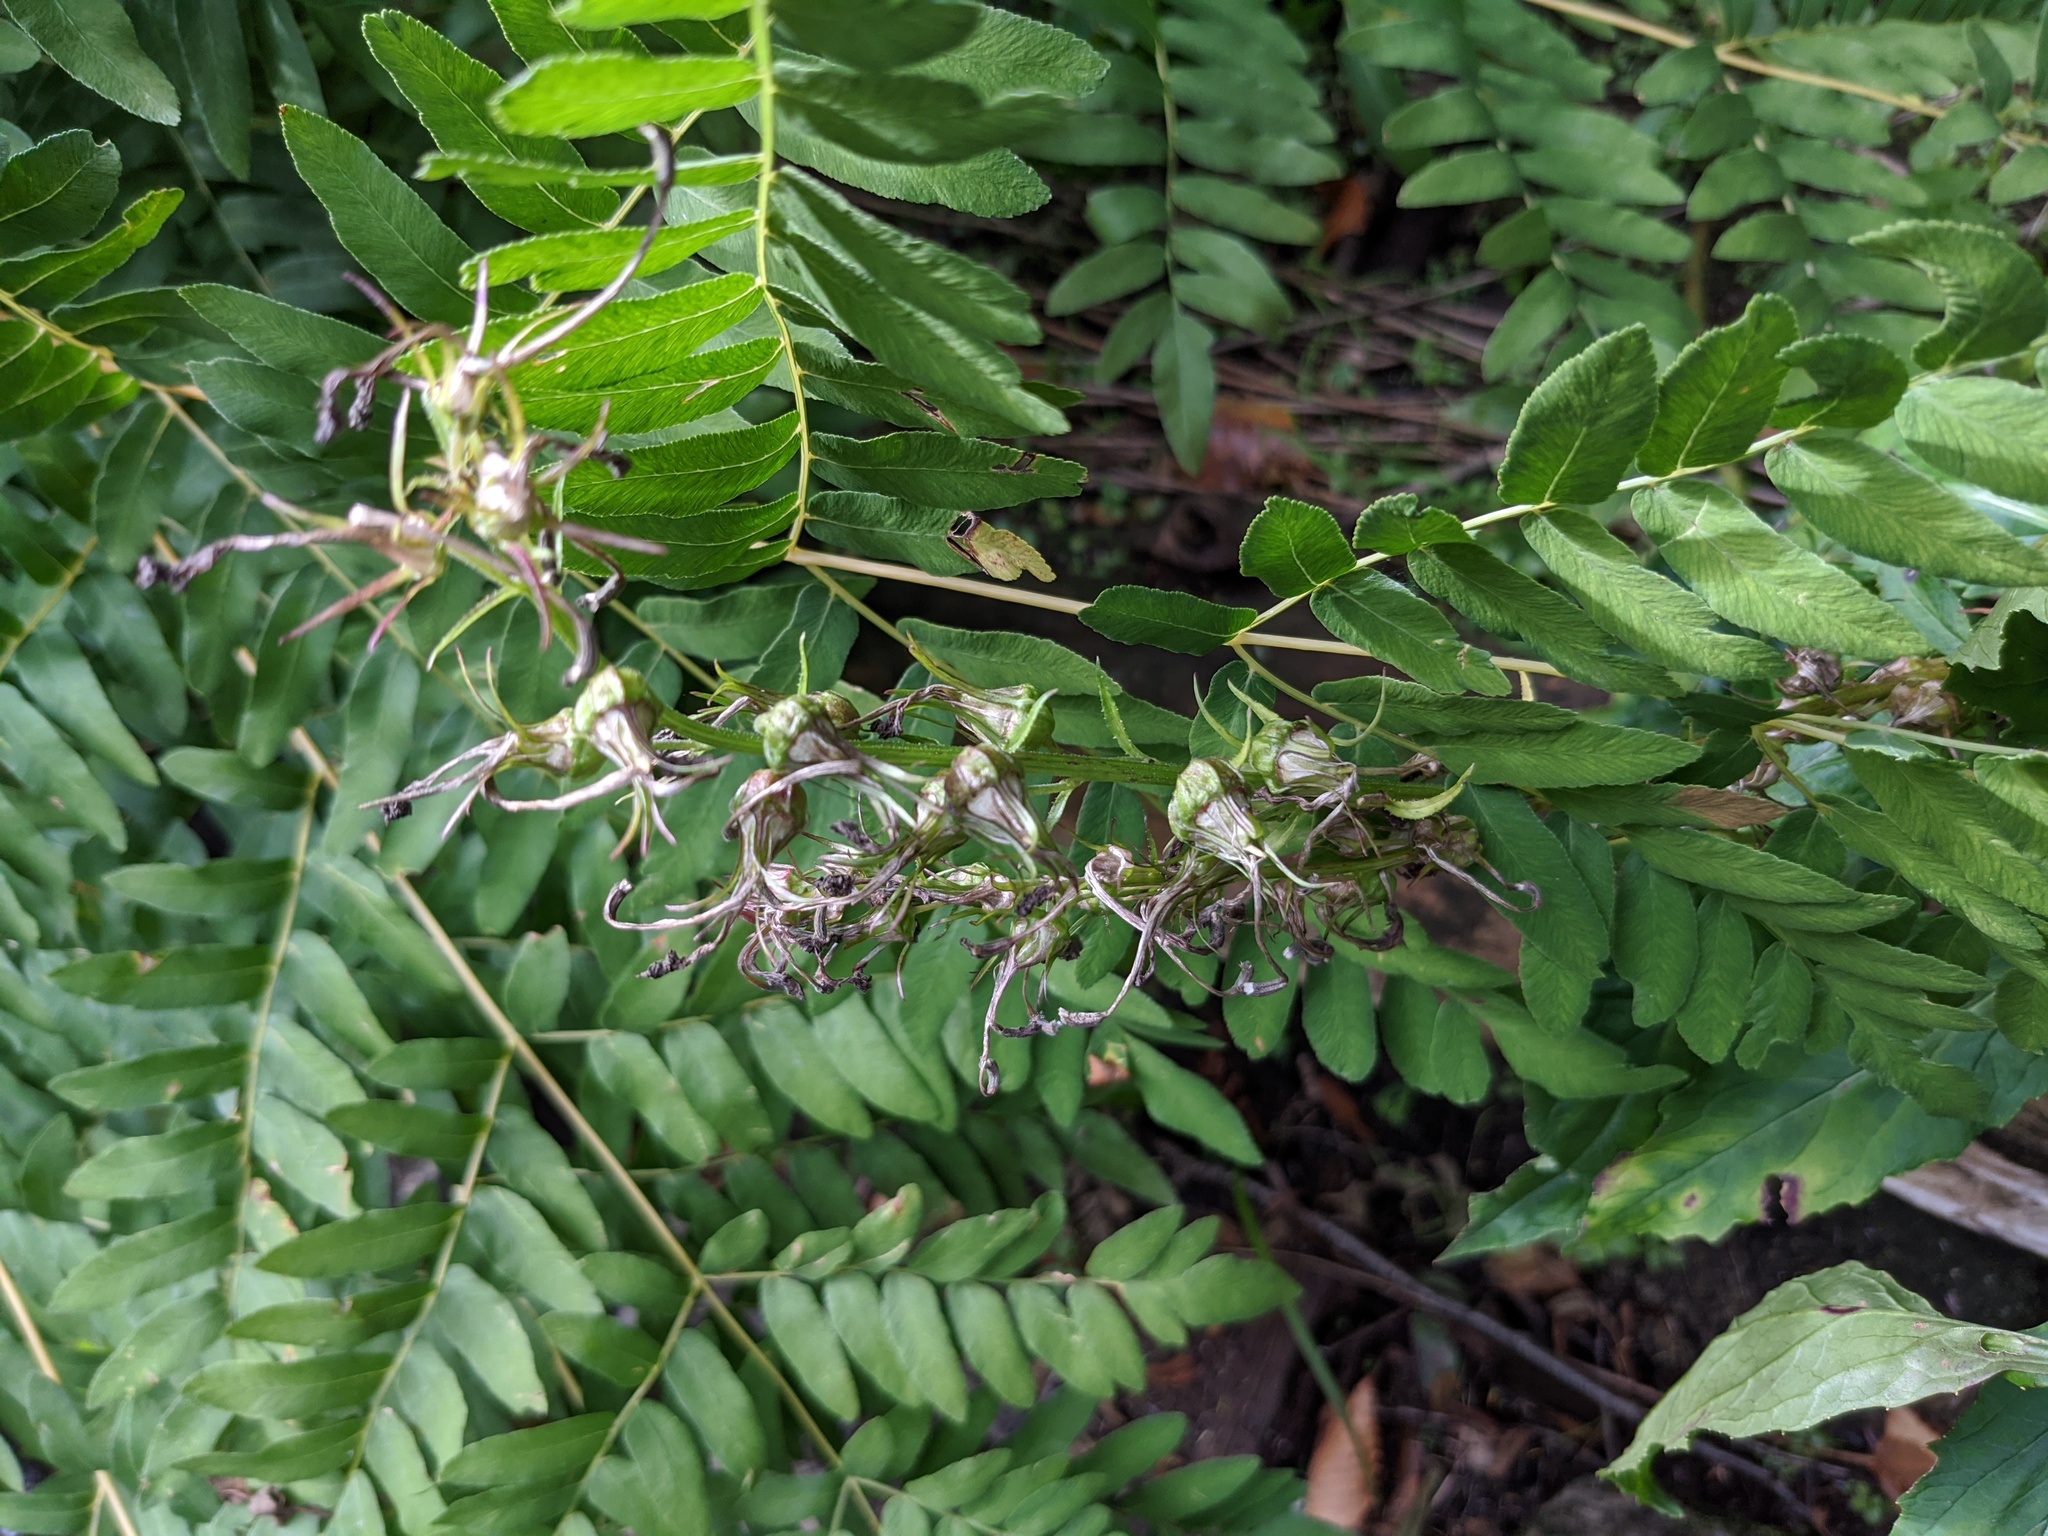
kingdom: Plantae
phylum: Tracheophyta
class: Magnoliopsida
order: Asterales
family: Campanulaceae
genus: Lobelia
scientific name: Lobelia cardinalis
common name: Cardinal flower
